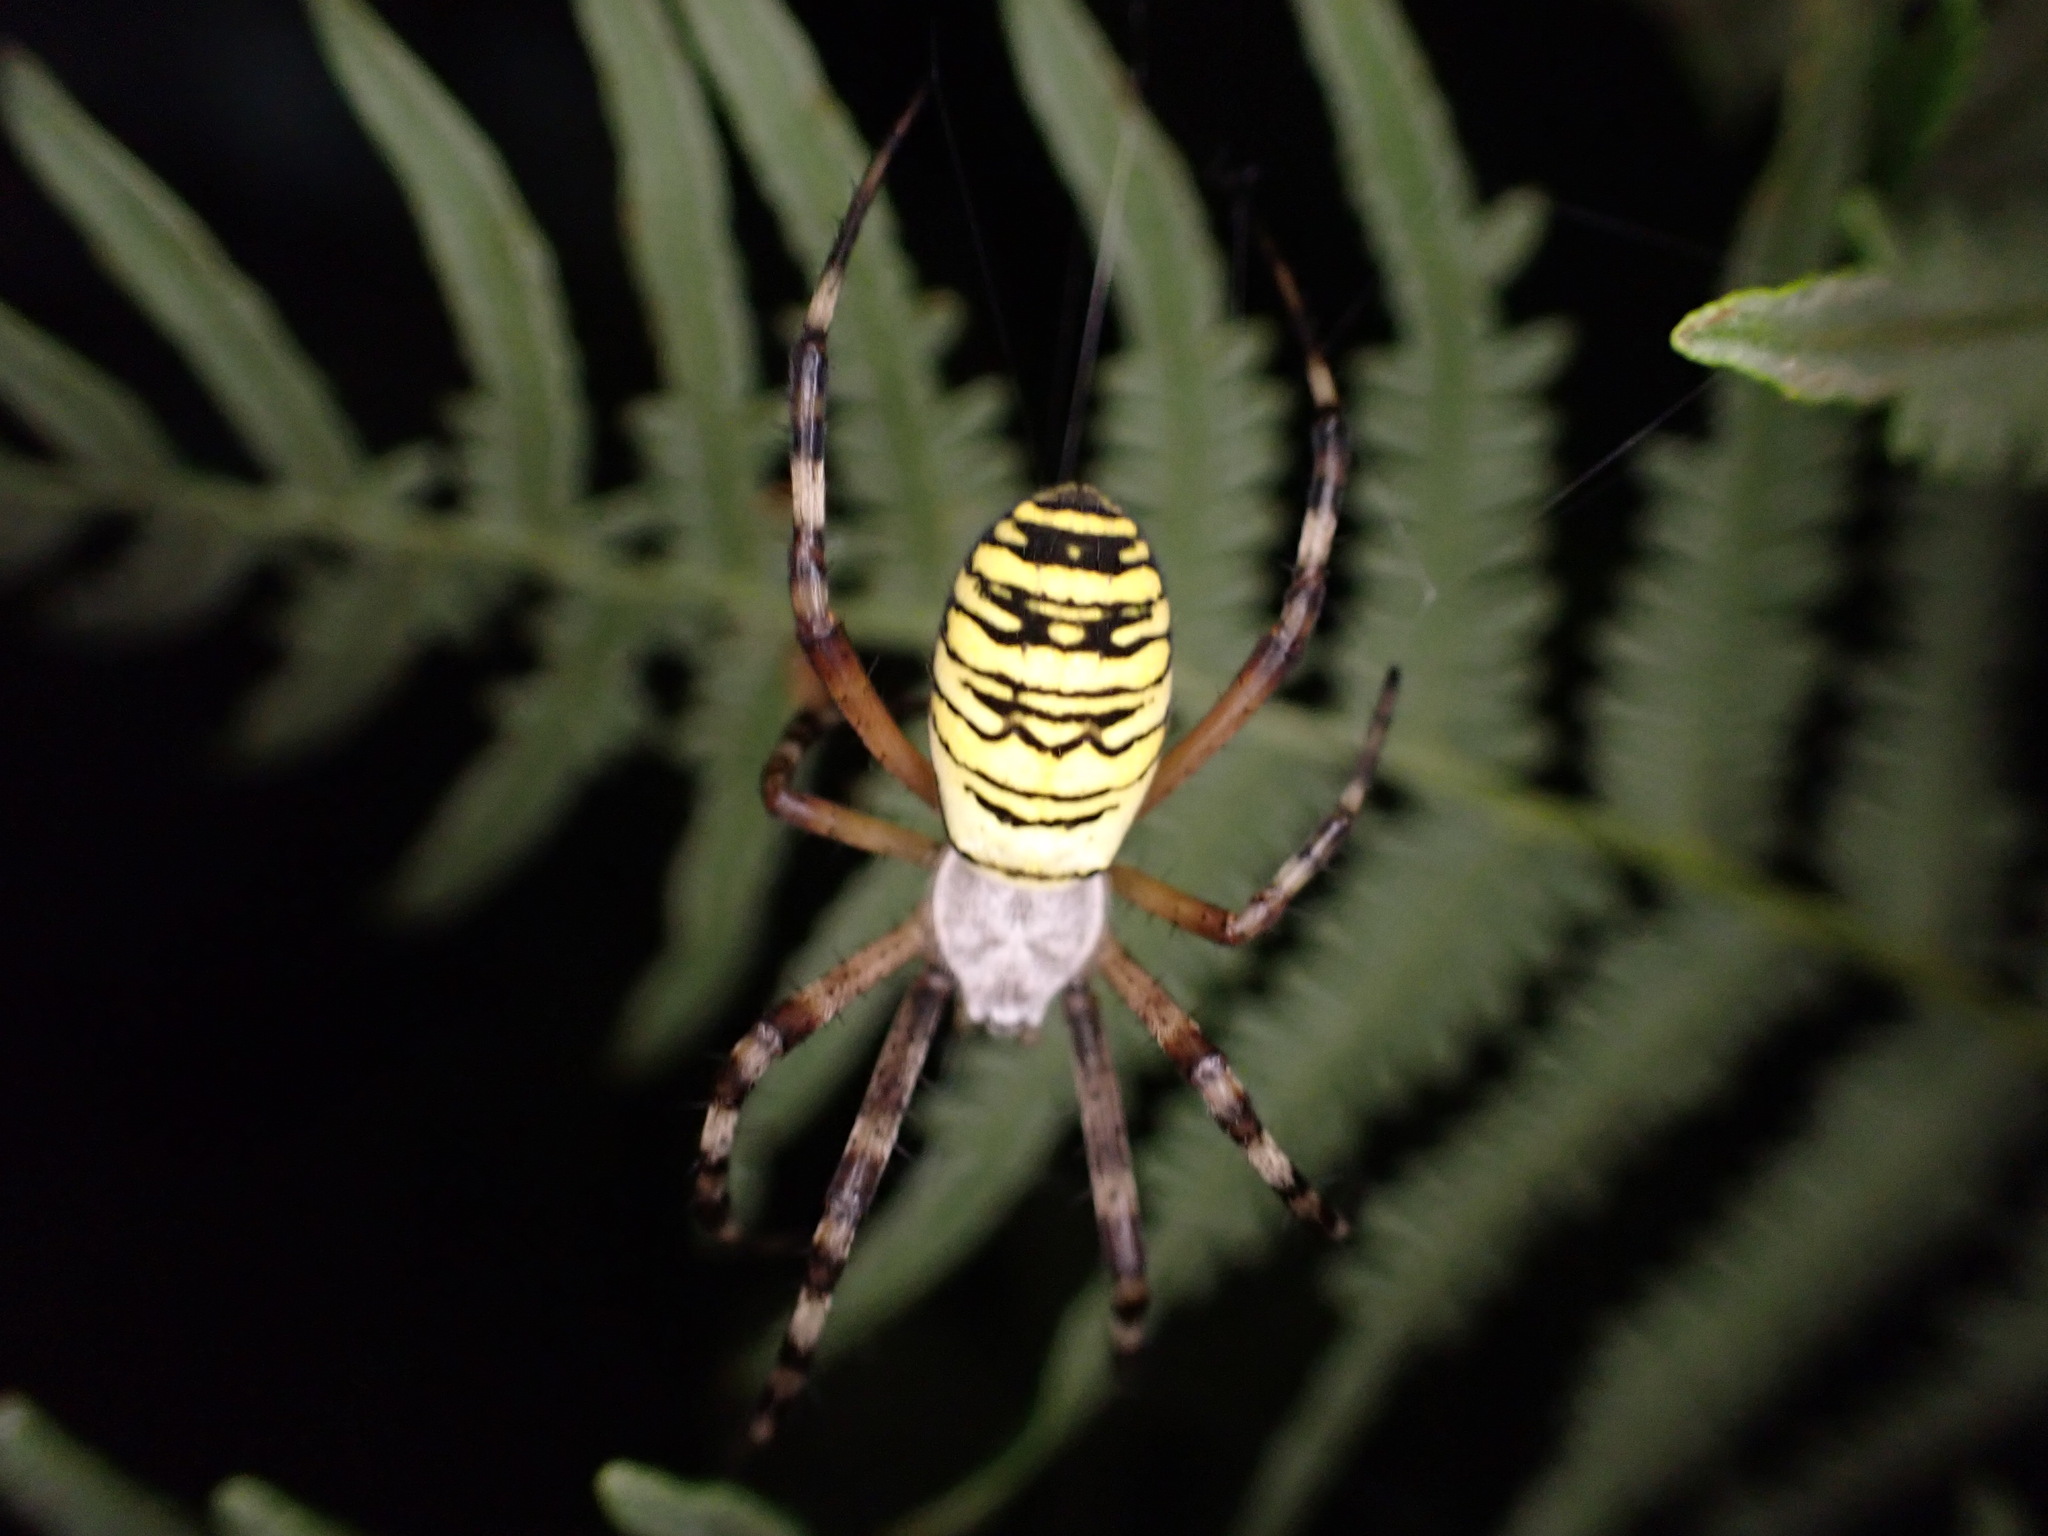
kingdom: Animalia
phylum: Arthropoda
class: Arachnida
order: Araneae
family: Araneidae
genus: Argiope
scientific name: Argiope bruennichi
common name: Wasp spider
